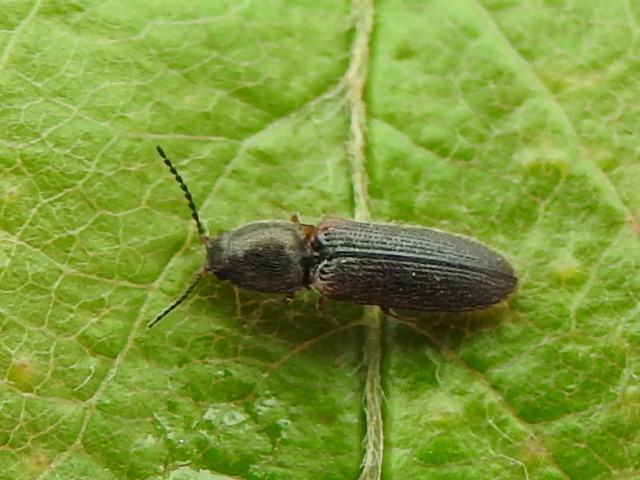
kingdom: Animalia
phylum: Arthropoda
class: Insecta
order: Coleoptera
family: Elateridae
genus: Limonius
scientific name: Limonius basilaris
